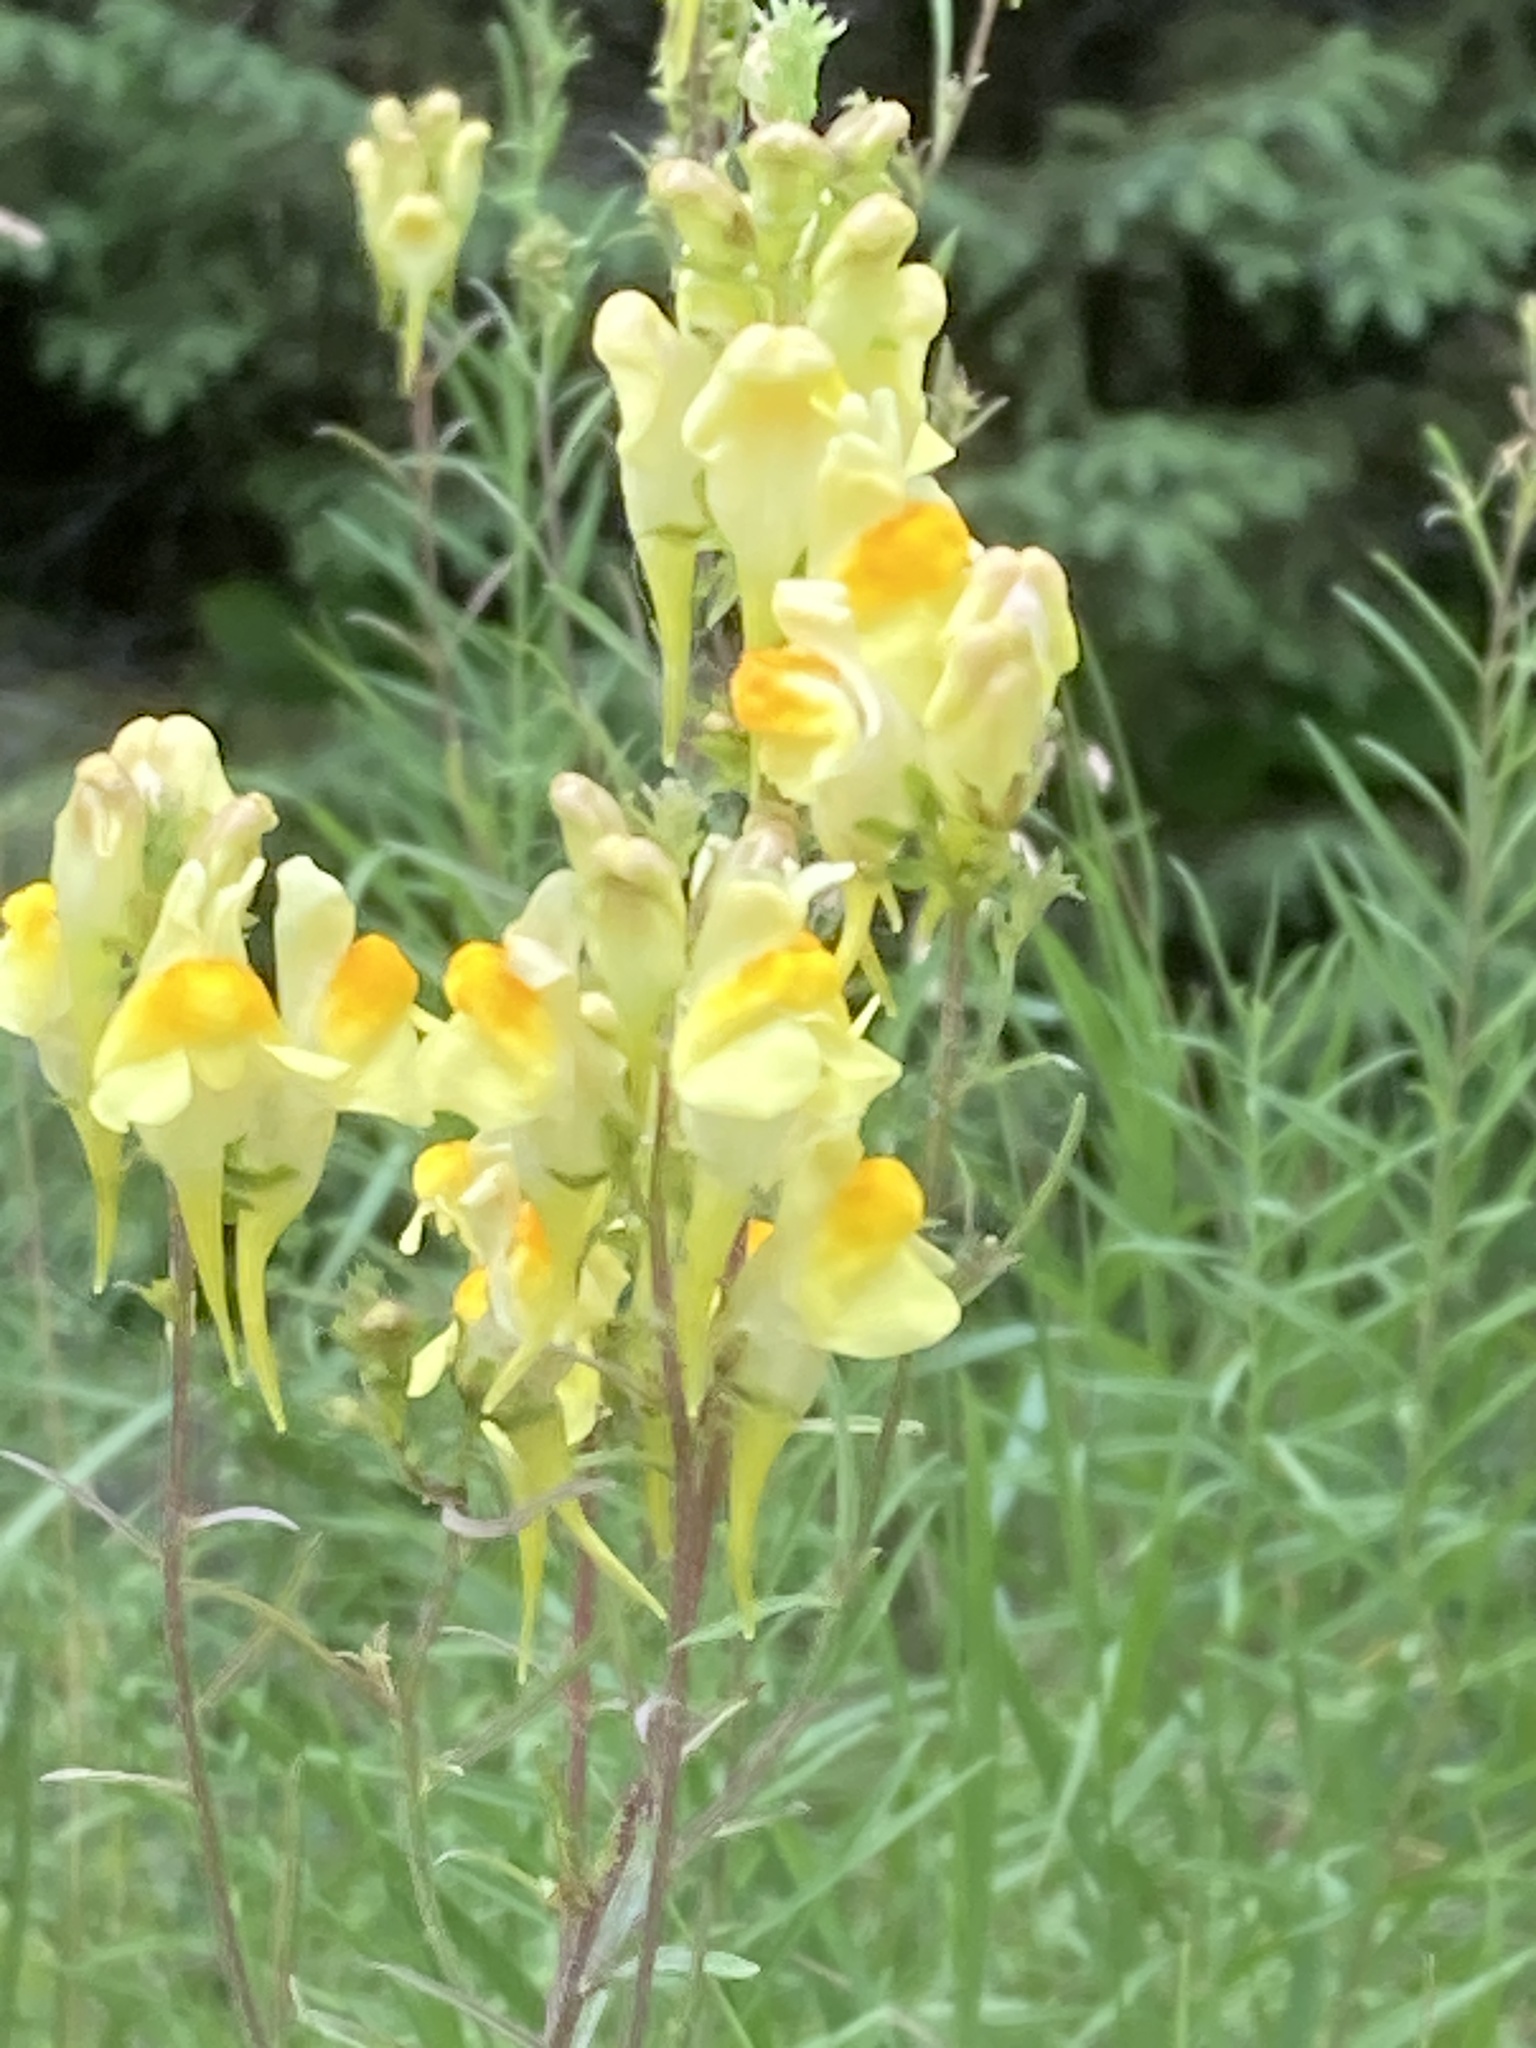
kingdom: Plantae
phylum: Tracheophyta
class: Magnoliopsida
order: Lamiales
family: Plantaginaceae
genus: Linaria
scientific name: Linaria vulgaris
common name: Butter and eggs
